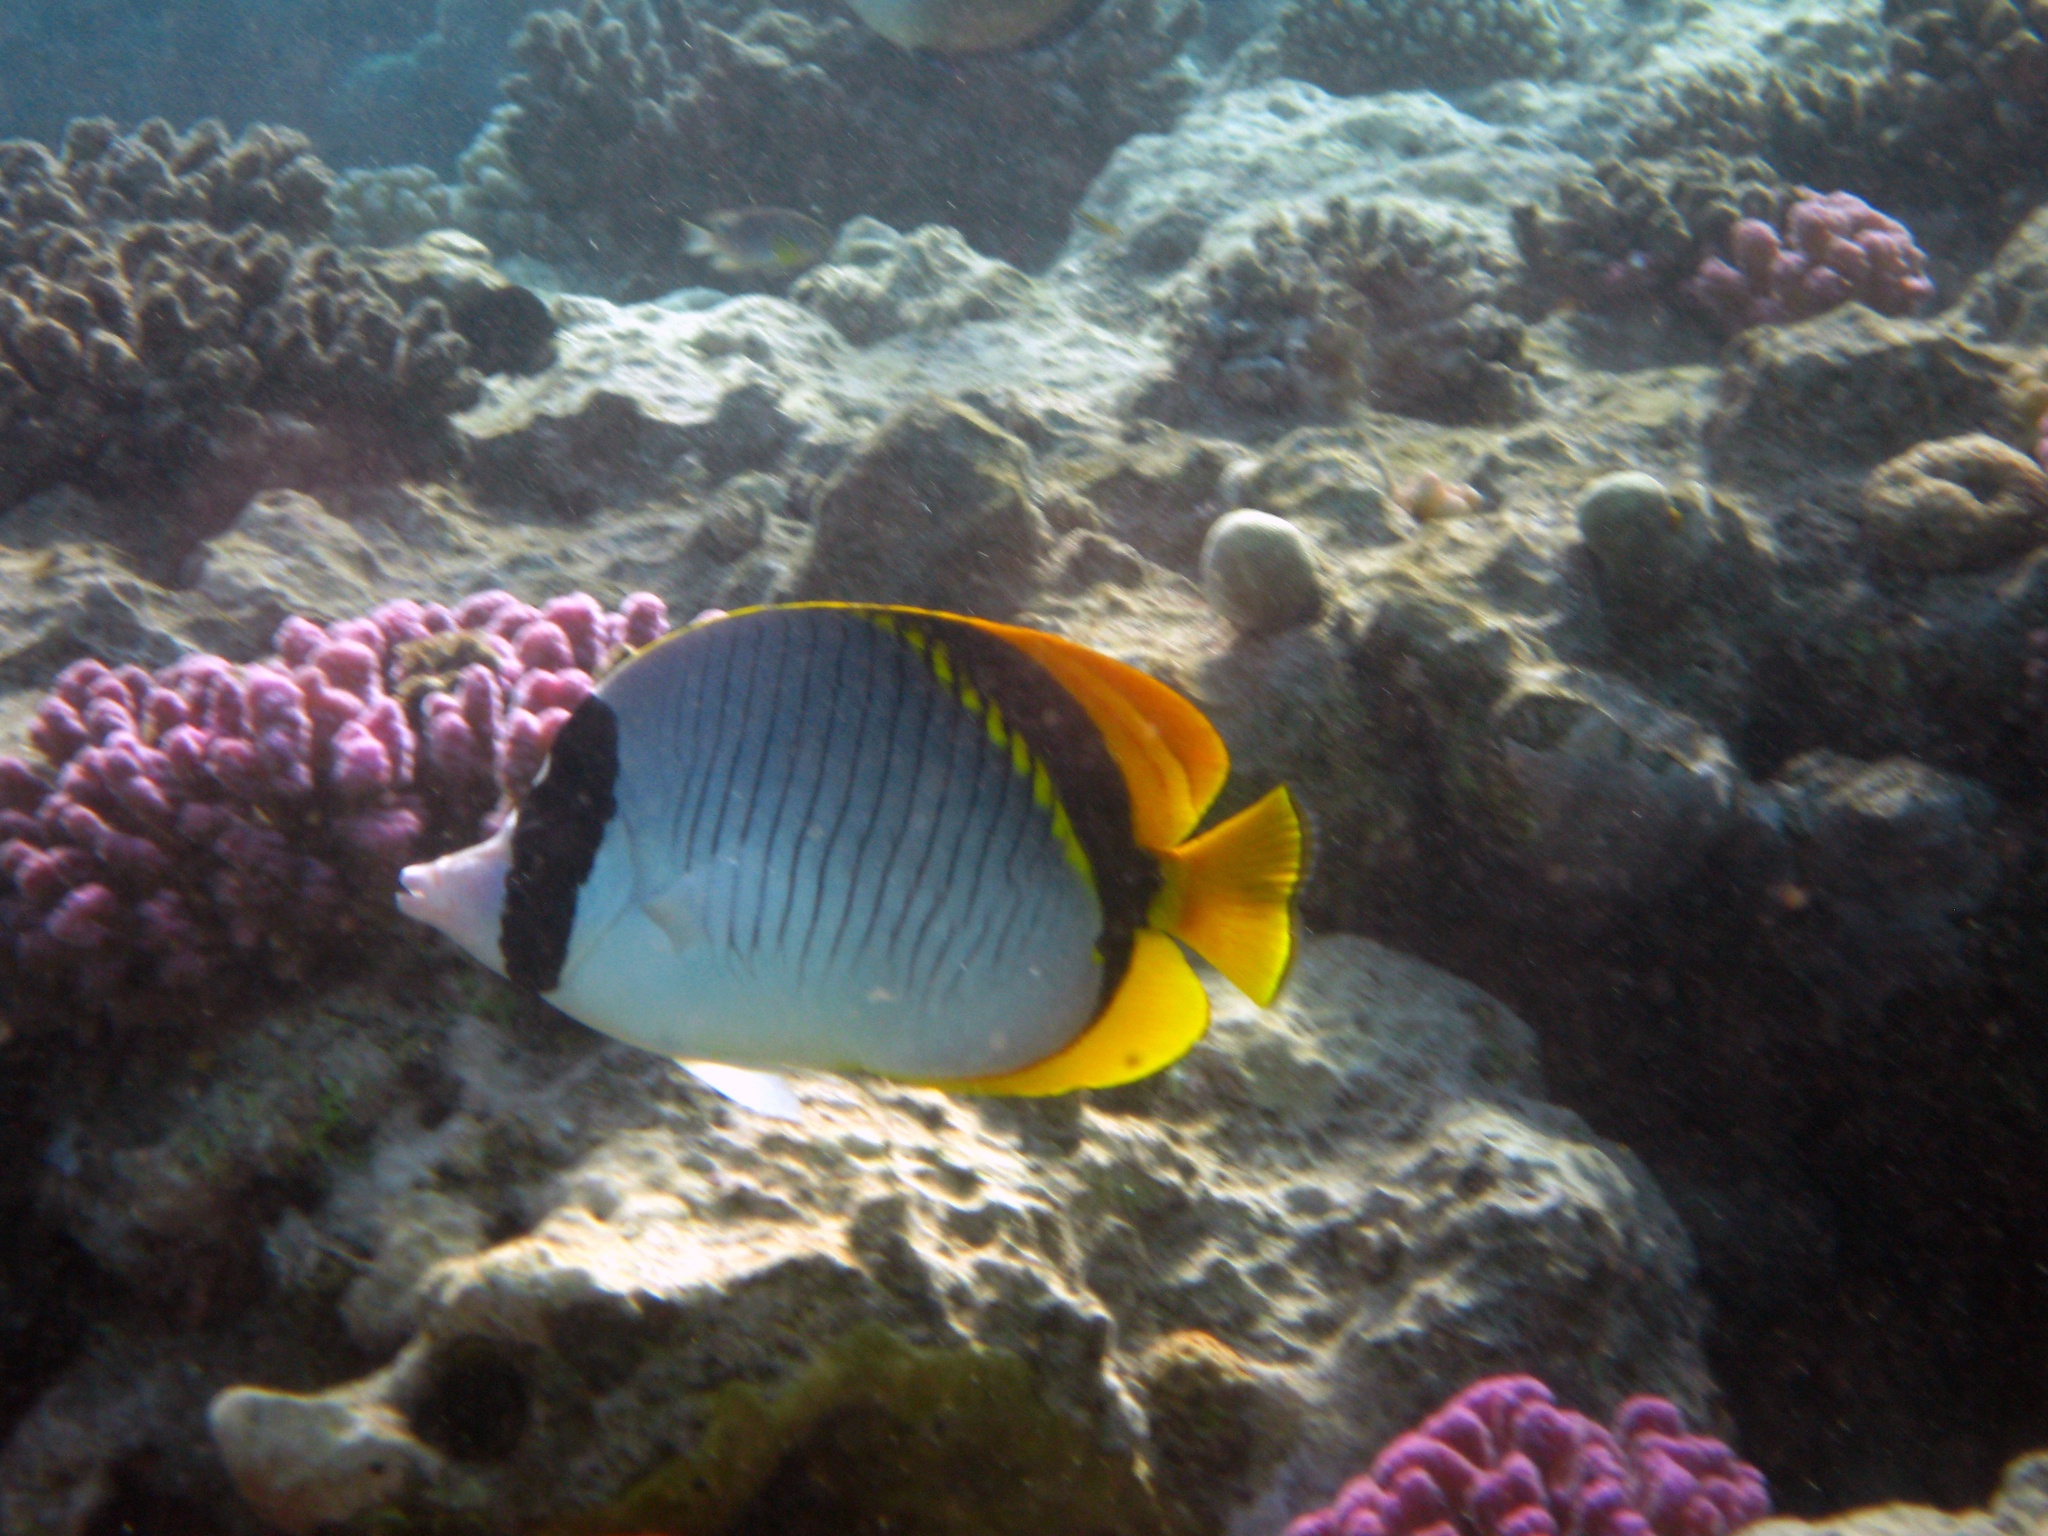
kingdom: Animalia
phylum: Chordata
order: Perciformes
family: Chaetodontidae
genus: Chaetodon
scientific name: Chaetodon lineolatus
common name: Lined butterflyfish
